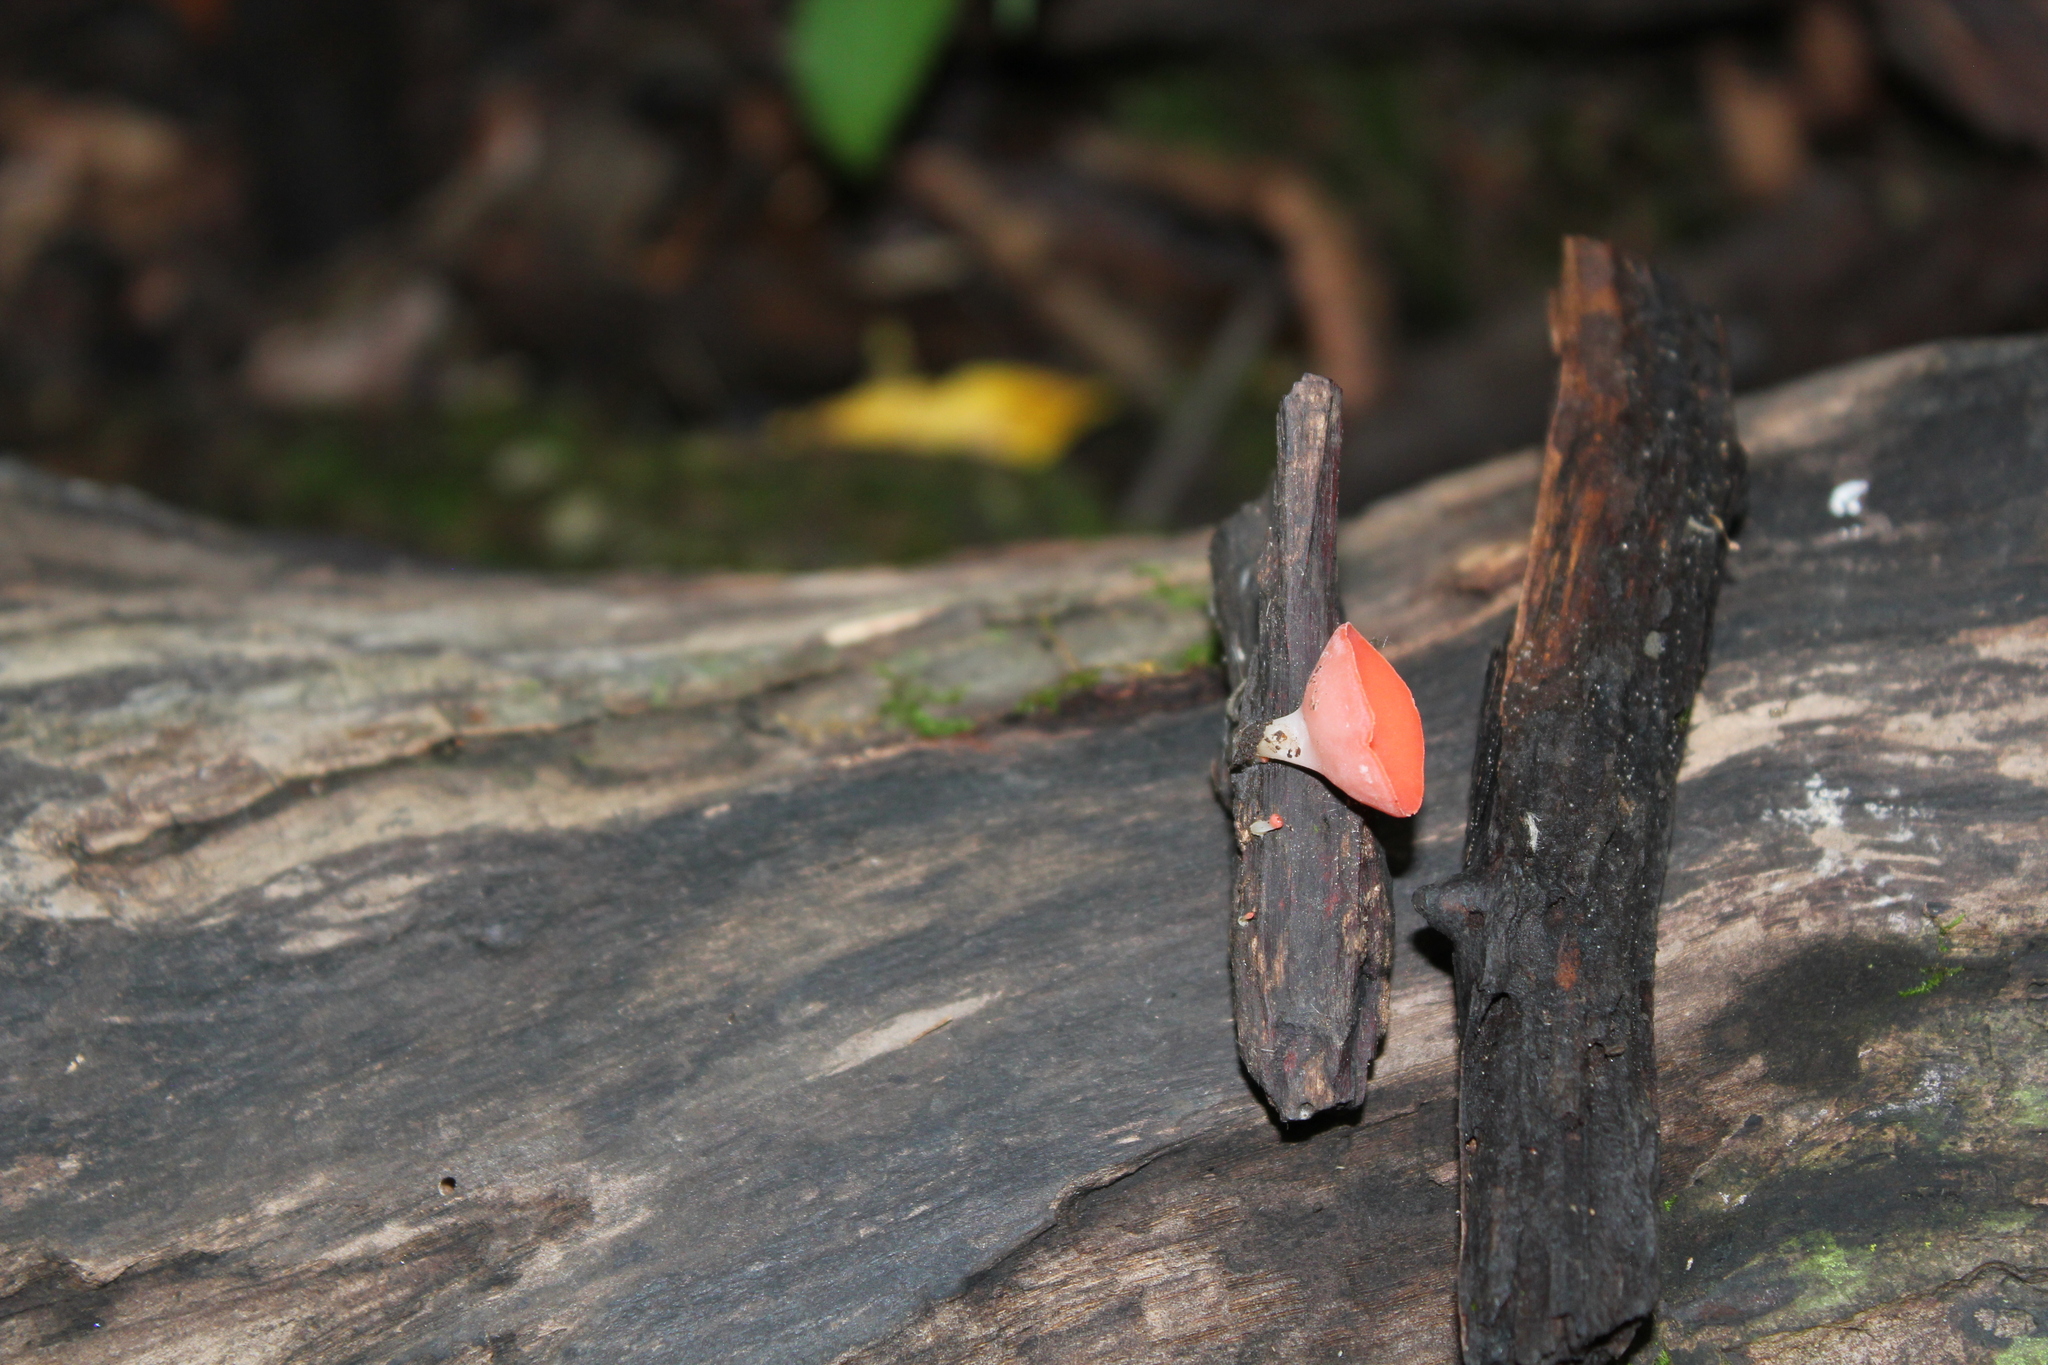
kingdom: Fungi
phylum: Ascomycota
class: Pezizomycetes
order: Pezizales
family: Sarcoscyphaceae
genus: Sarcoscypha
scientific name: Sarcoscypha occidentalis
